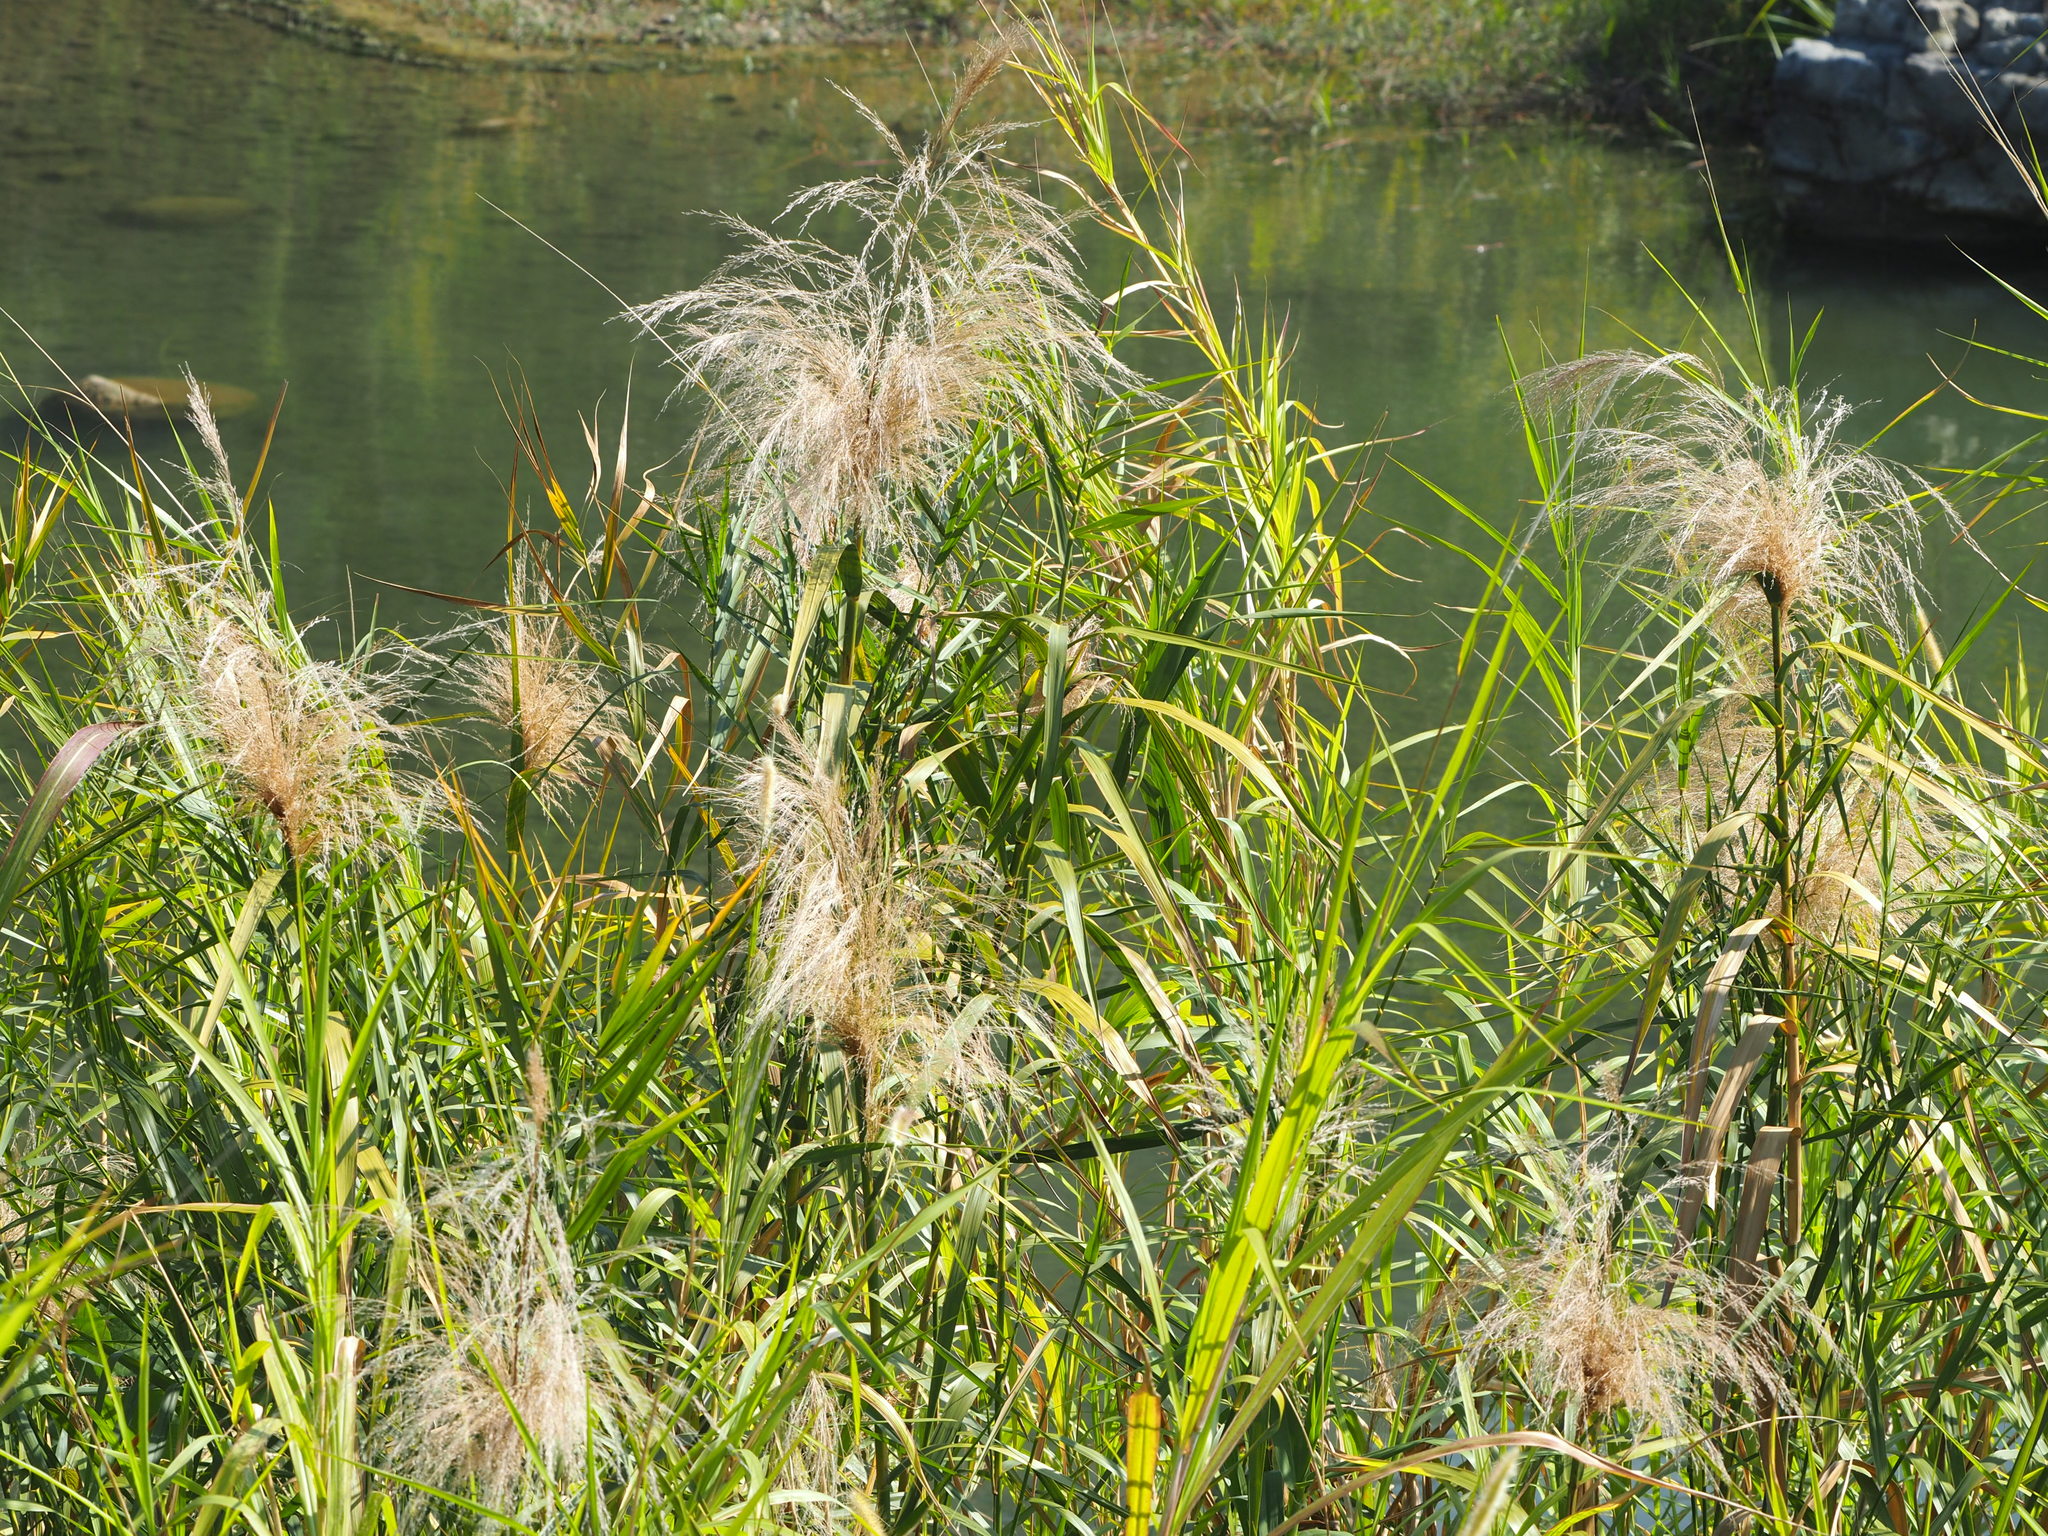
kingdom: Plantae
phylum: Tracheophyta
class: Liliopsida
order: Poales
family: Poaceae
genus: Phragmites
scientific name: Phragmites karka
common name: Tropical reed
